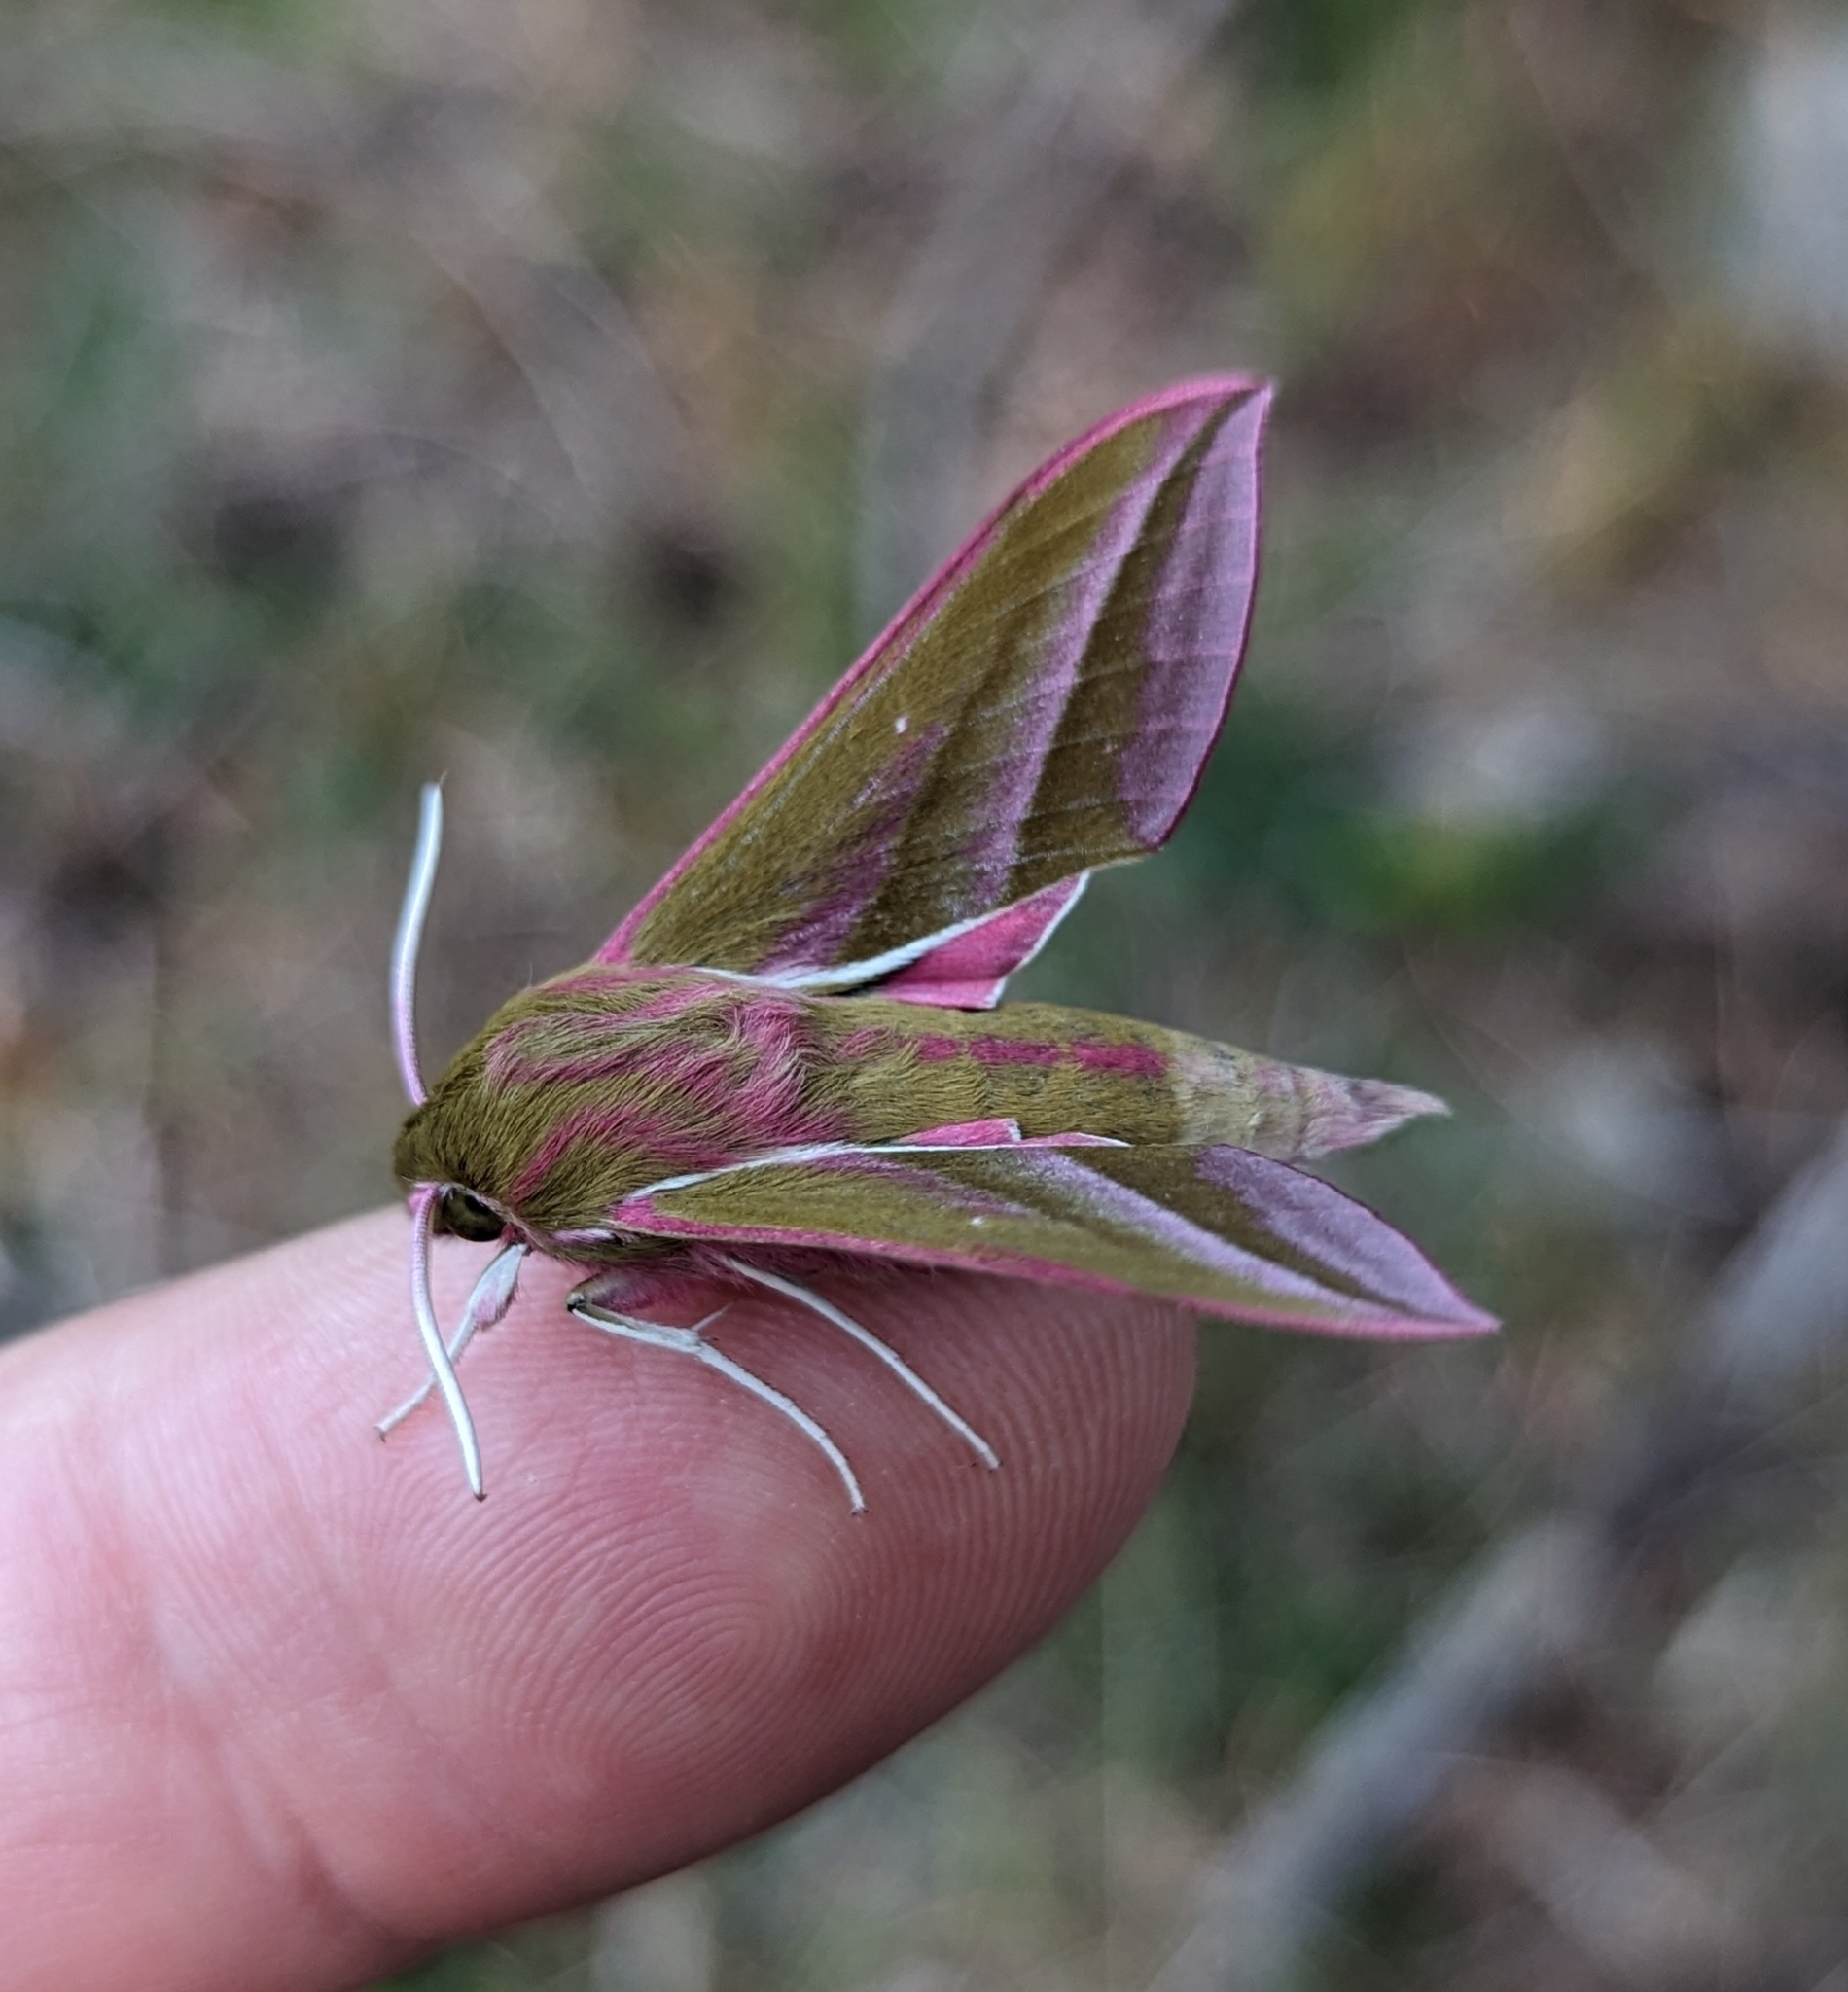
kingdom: Animalia
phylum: Arthropoda
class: Insecta
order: Lepidoptera
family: Sphingidae
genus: Deilephila
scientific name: Deilephila elpenor
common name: Elephant hawk-moth
